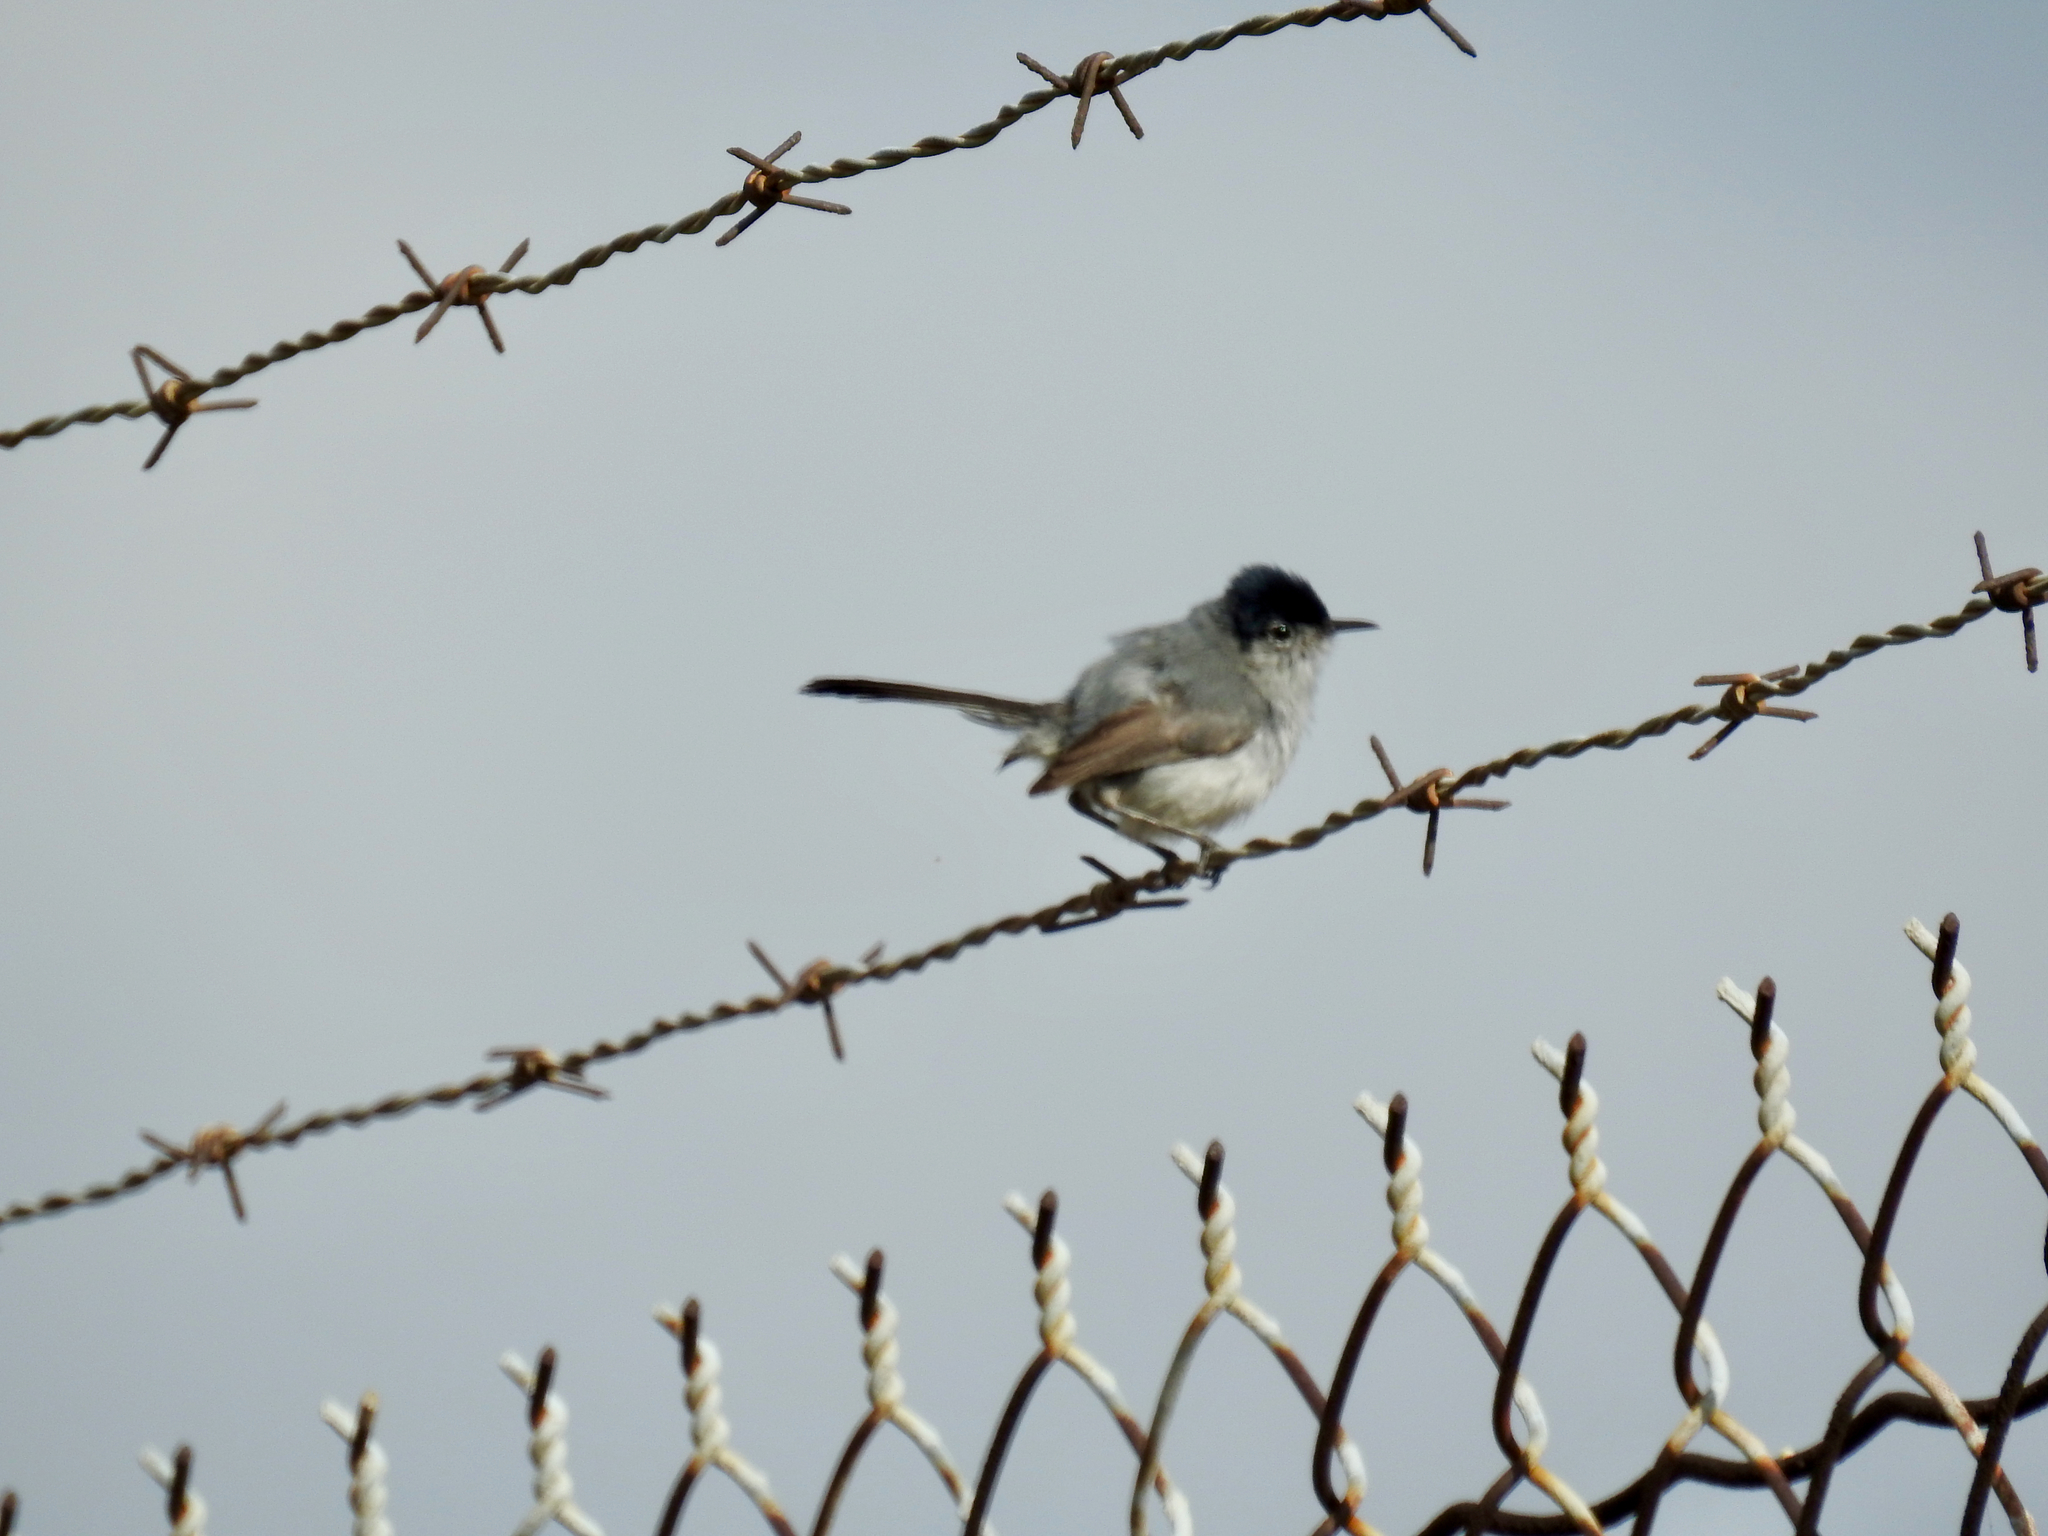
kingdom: Animalia
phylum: Chordata
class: Aves
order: Passeriformes
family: Polioptilidae
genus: Polioptila
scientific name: Polioptila californica
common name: California gnatcatcher
